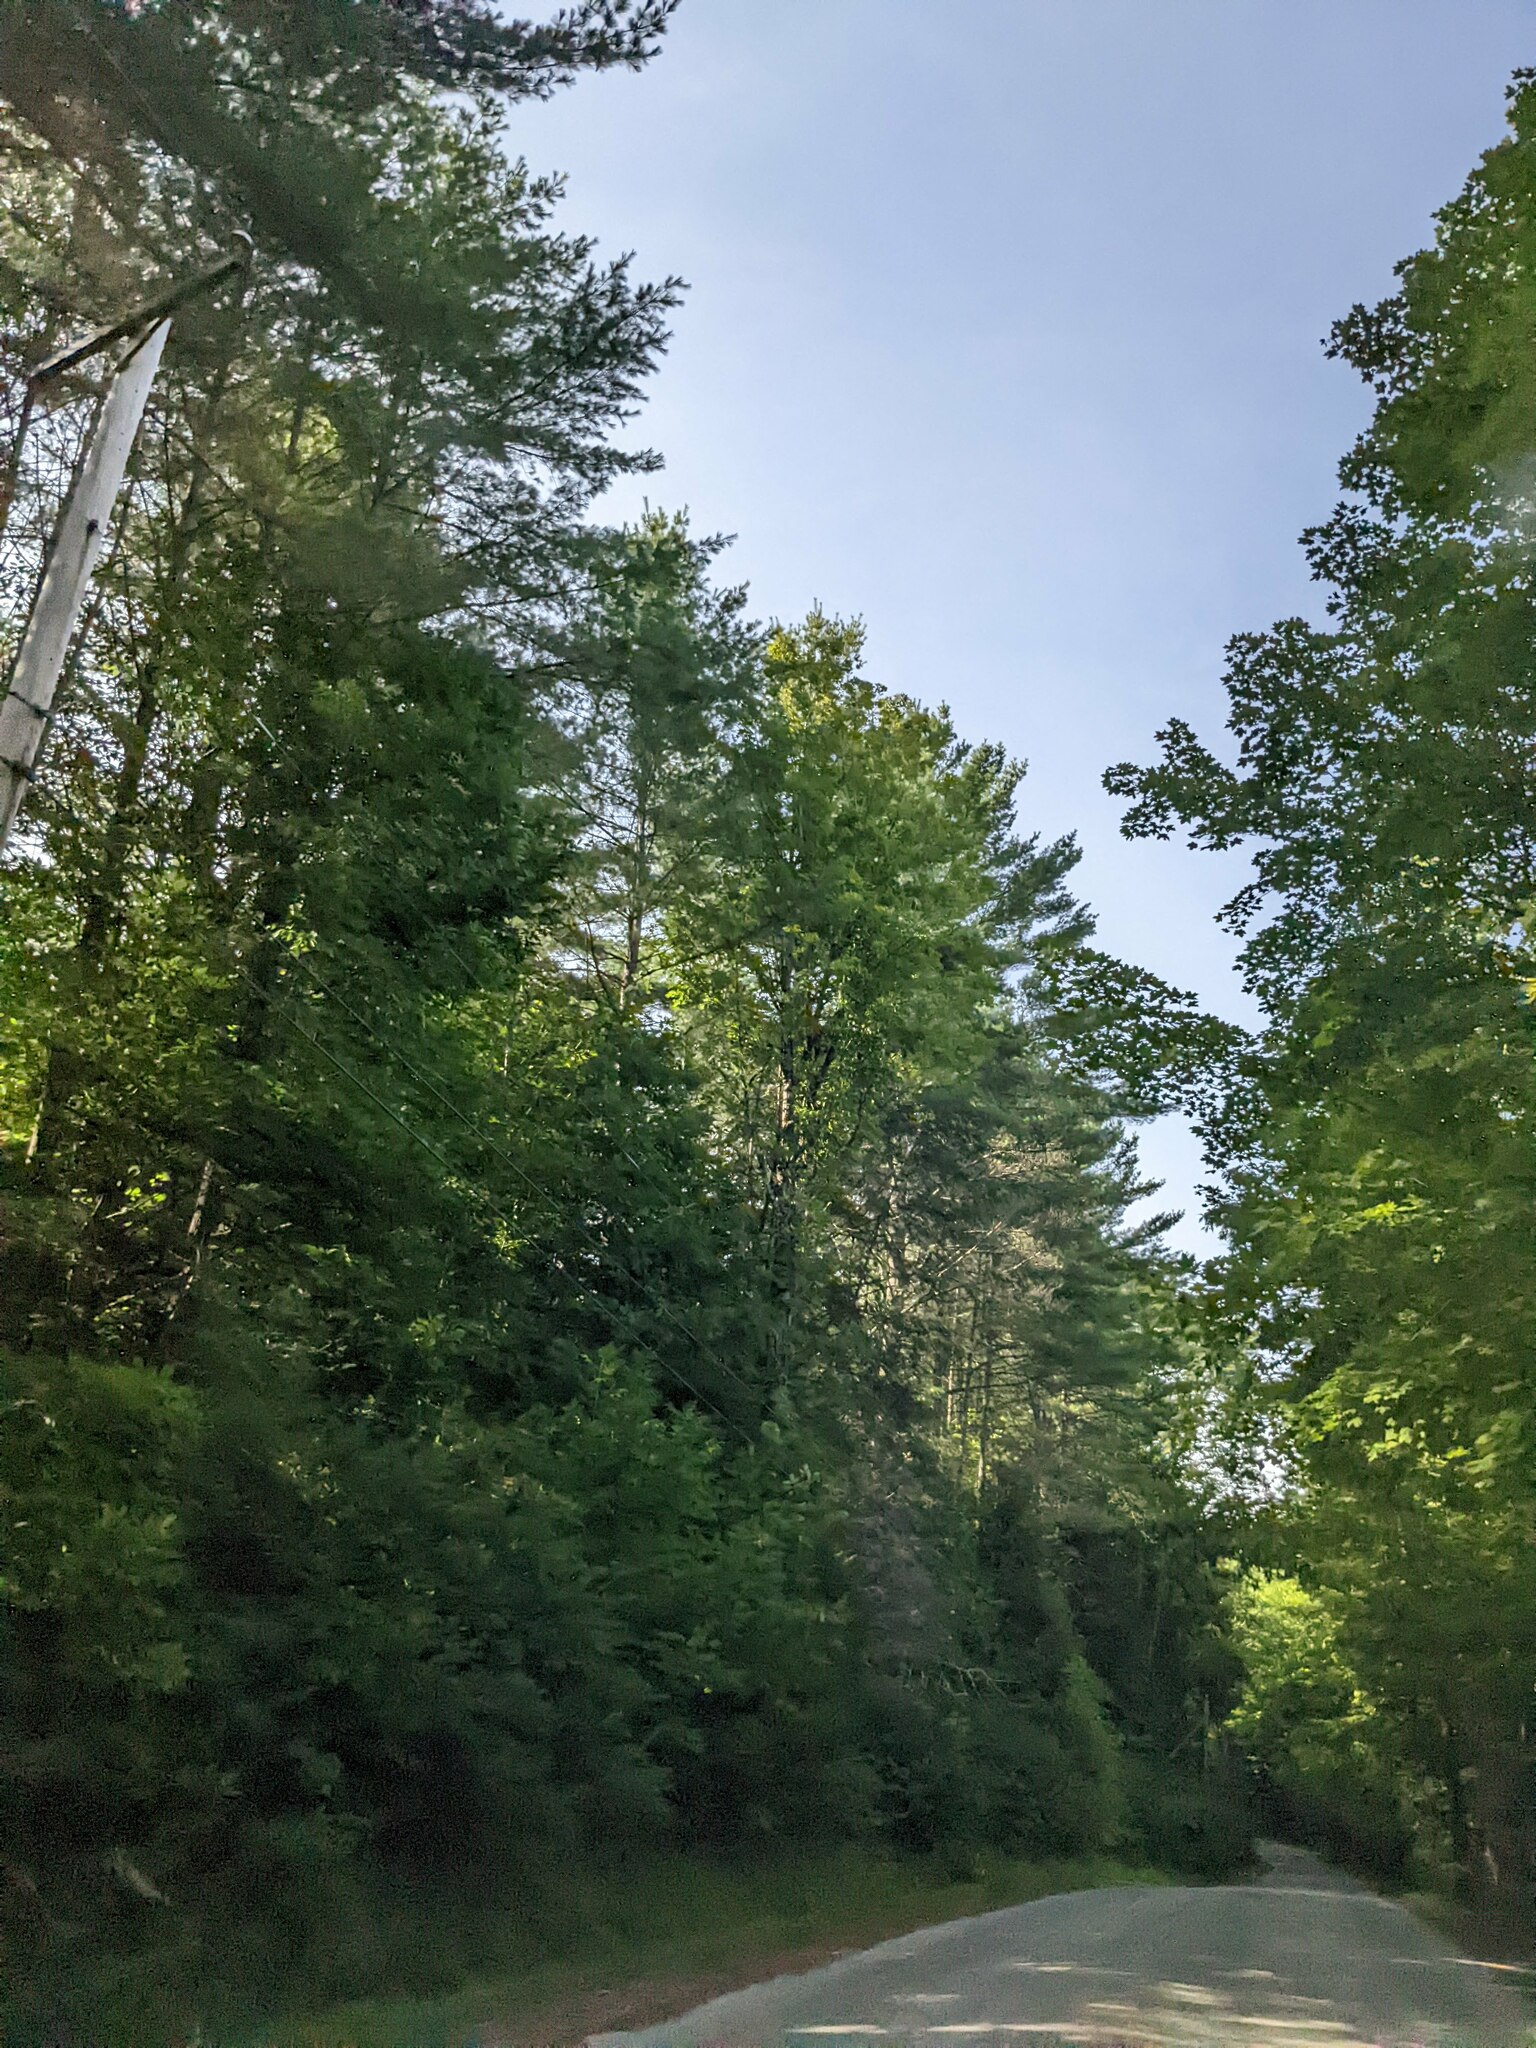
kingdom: Plantae
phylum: Tracheophyta
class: Pinopsida
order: Pinales
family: Pinaceae
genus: Pinus
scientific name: Pinus strobus
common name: Weymouth pine
